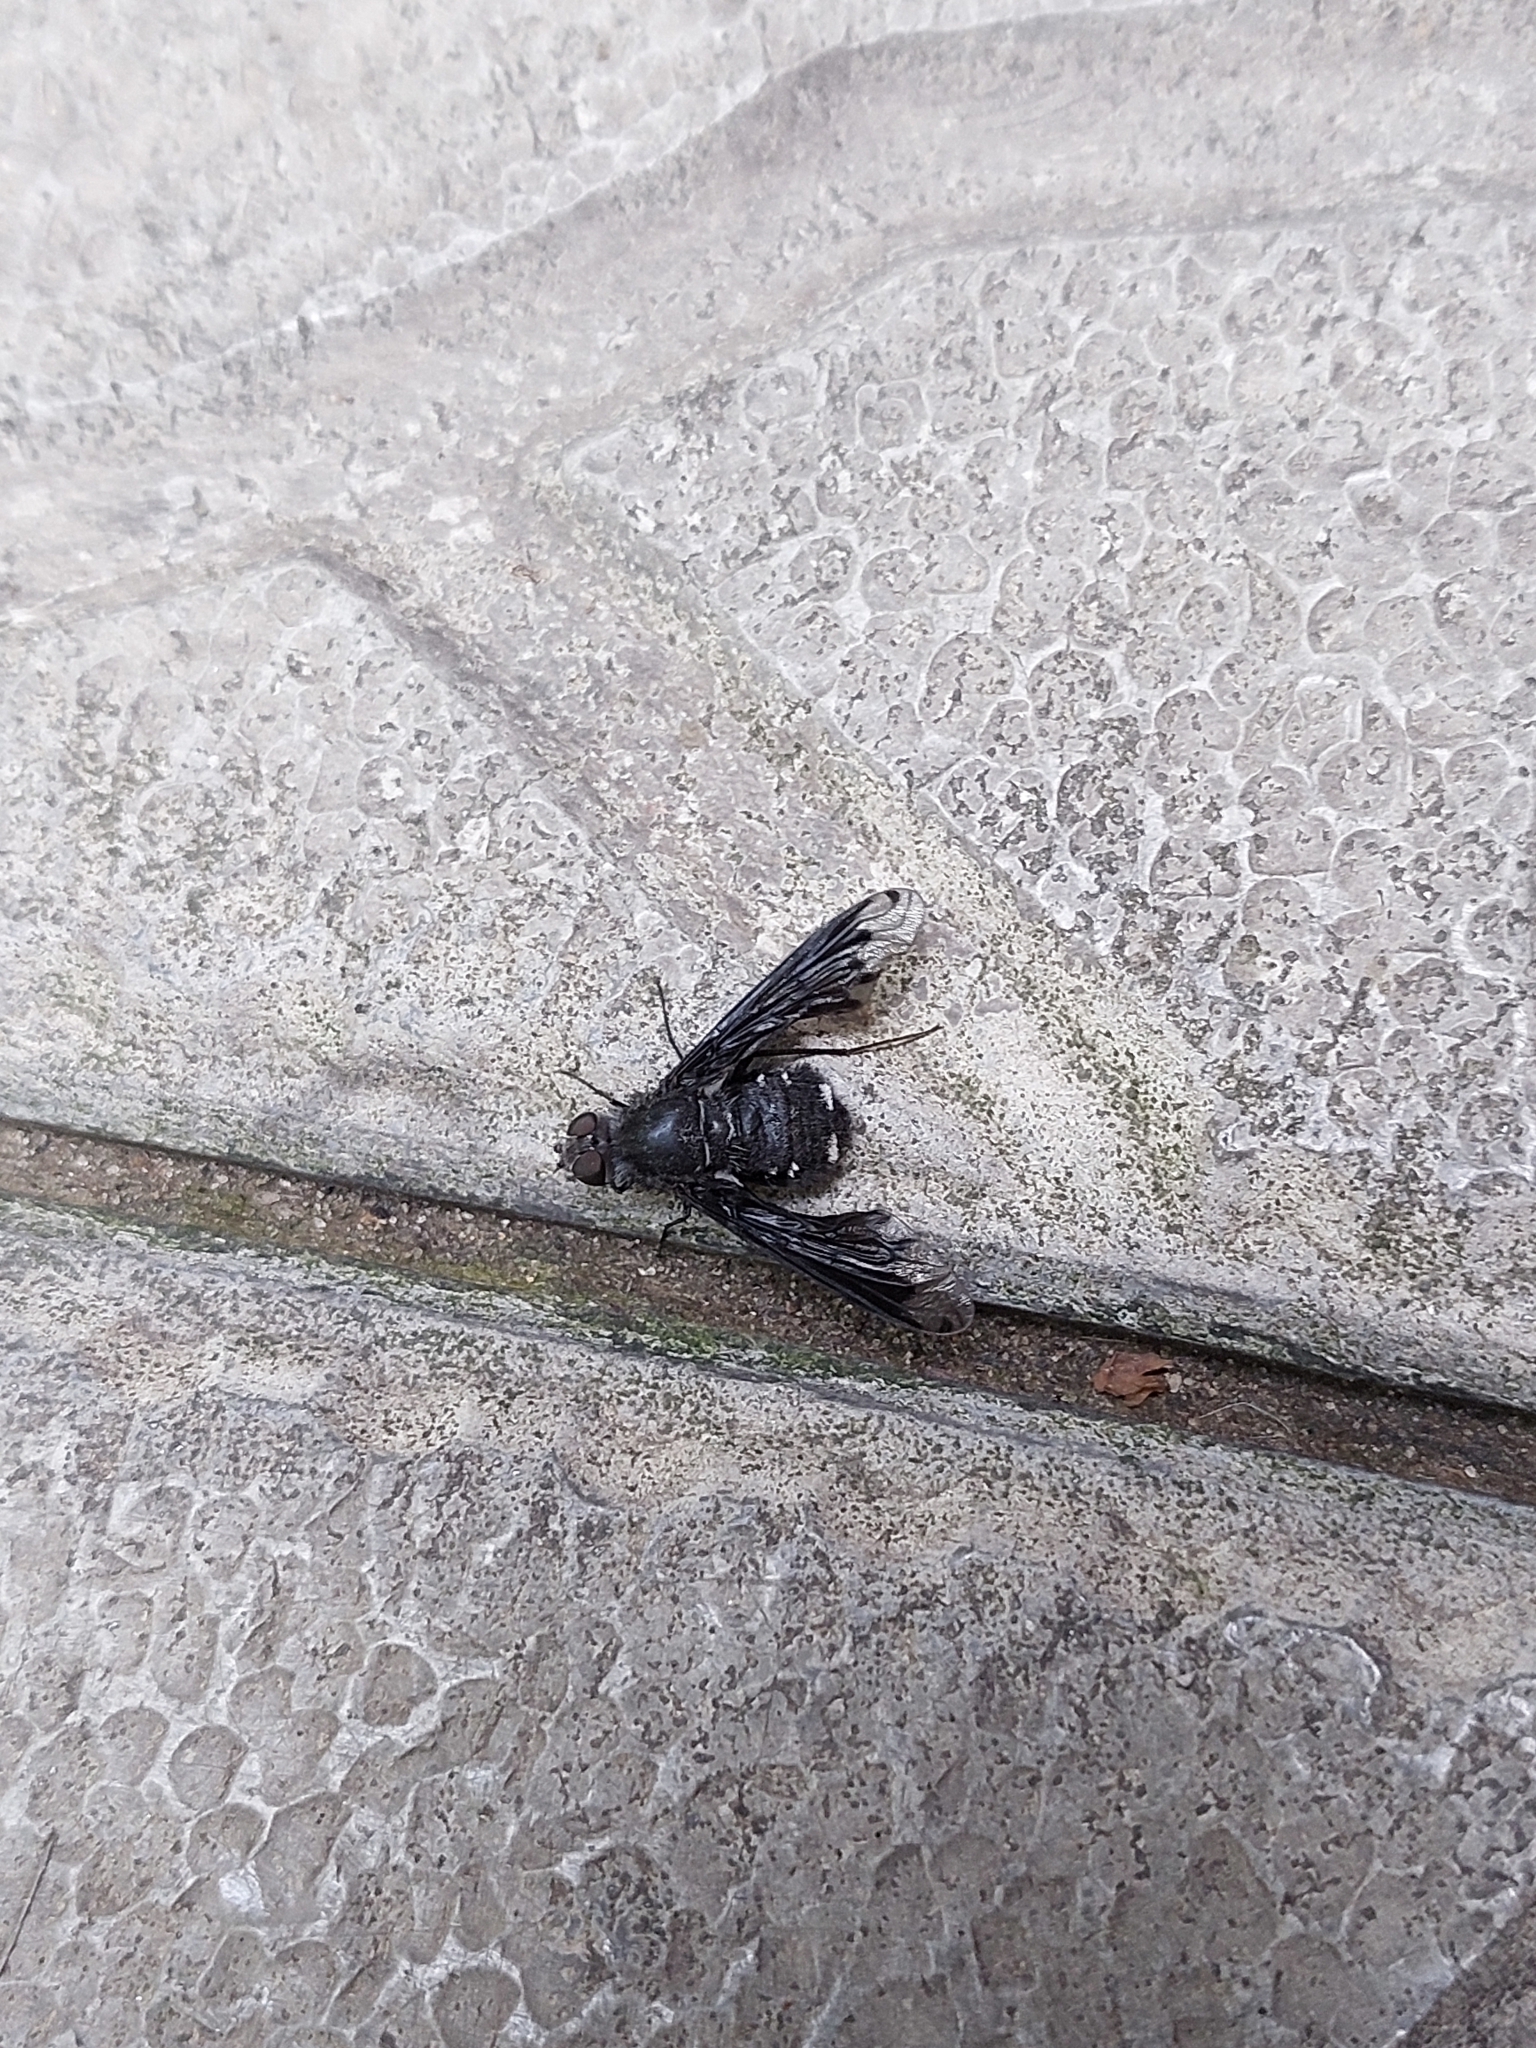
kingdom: Animalia
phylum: Arthropoda
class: Insecta
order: Diptera
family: Bombyliidae
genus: Anthrax
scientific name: Anthrax anthrax
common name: Anthracite bee-fly
